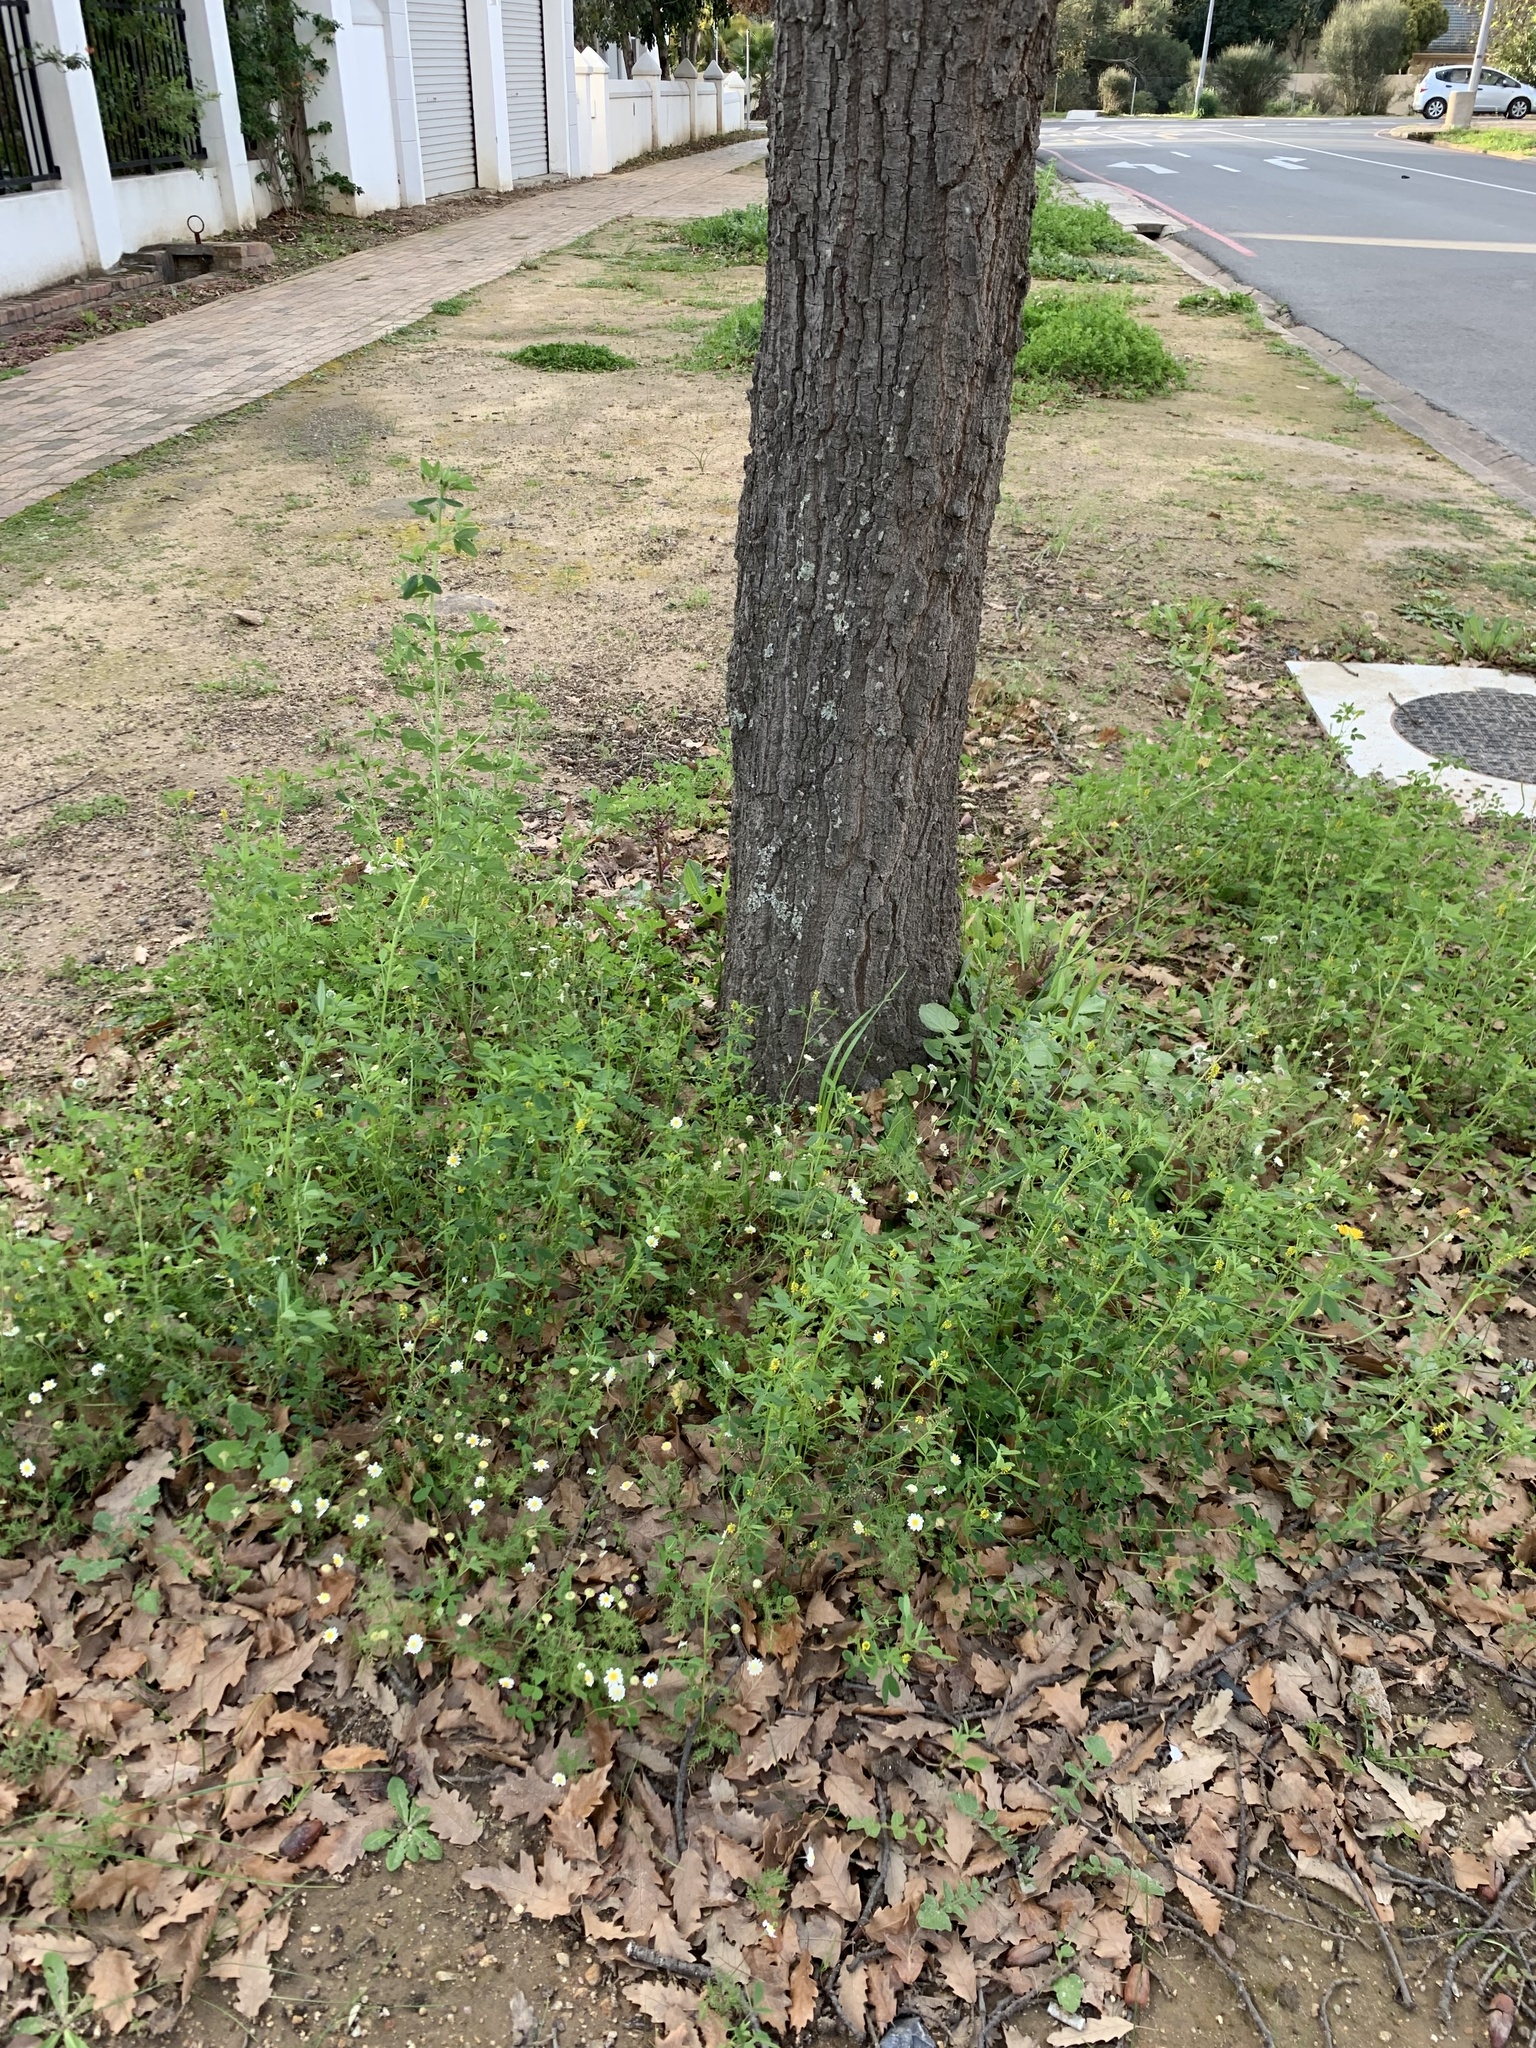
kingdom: Plantae
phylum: Tracheophyta
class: Magnoliopsida
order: Fabales
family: Fabaceae
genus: Melilotus
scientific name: Melilotus indicus
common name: Small melilot
